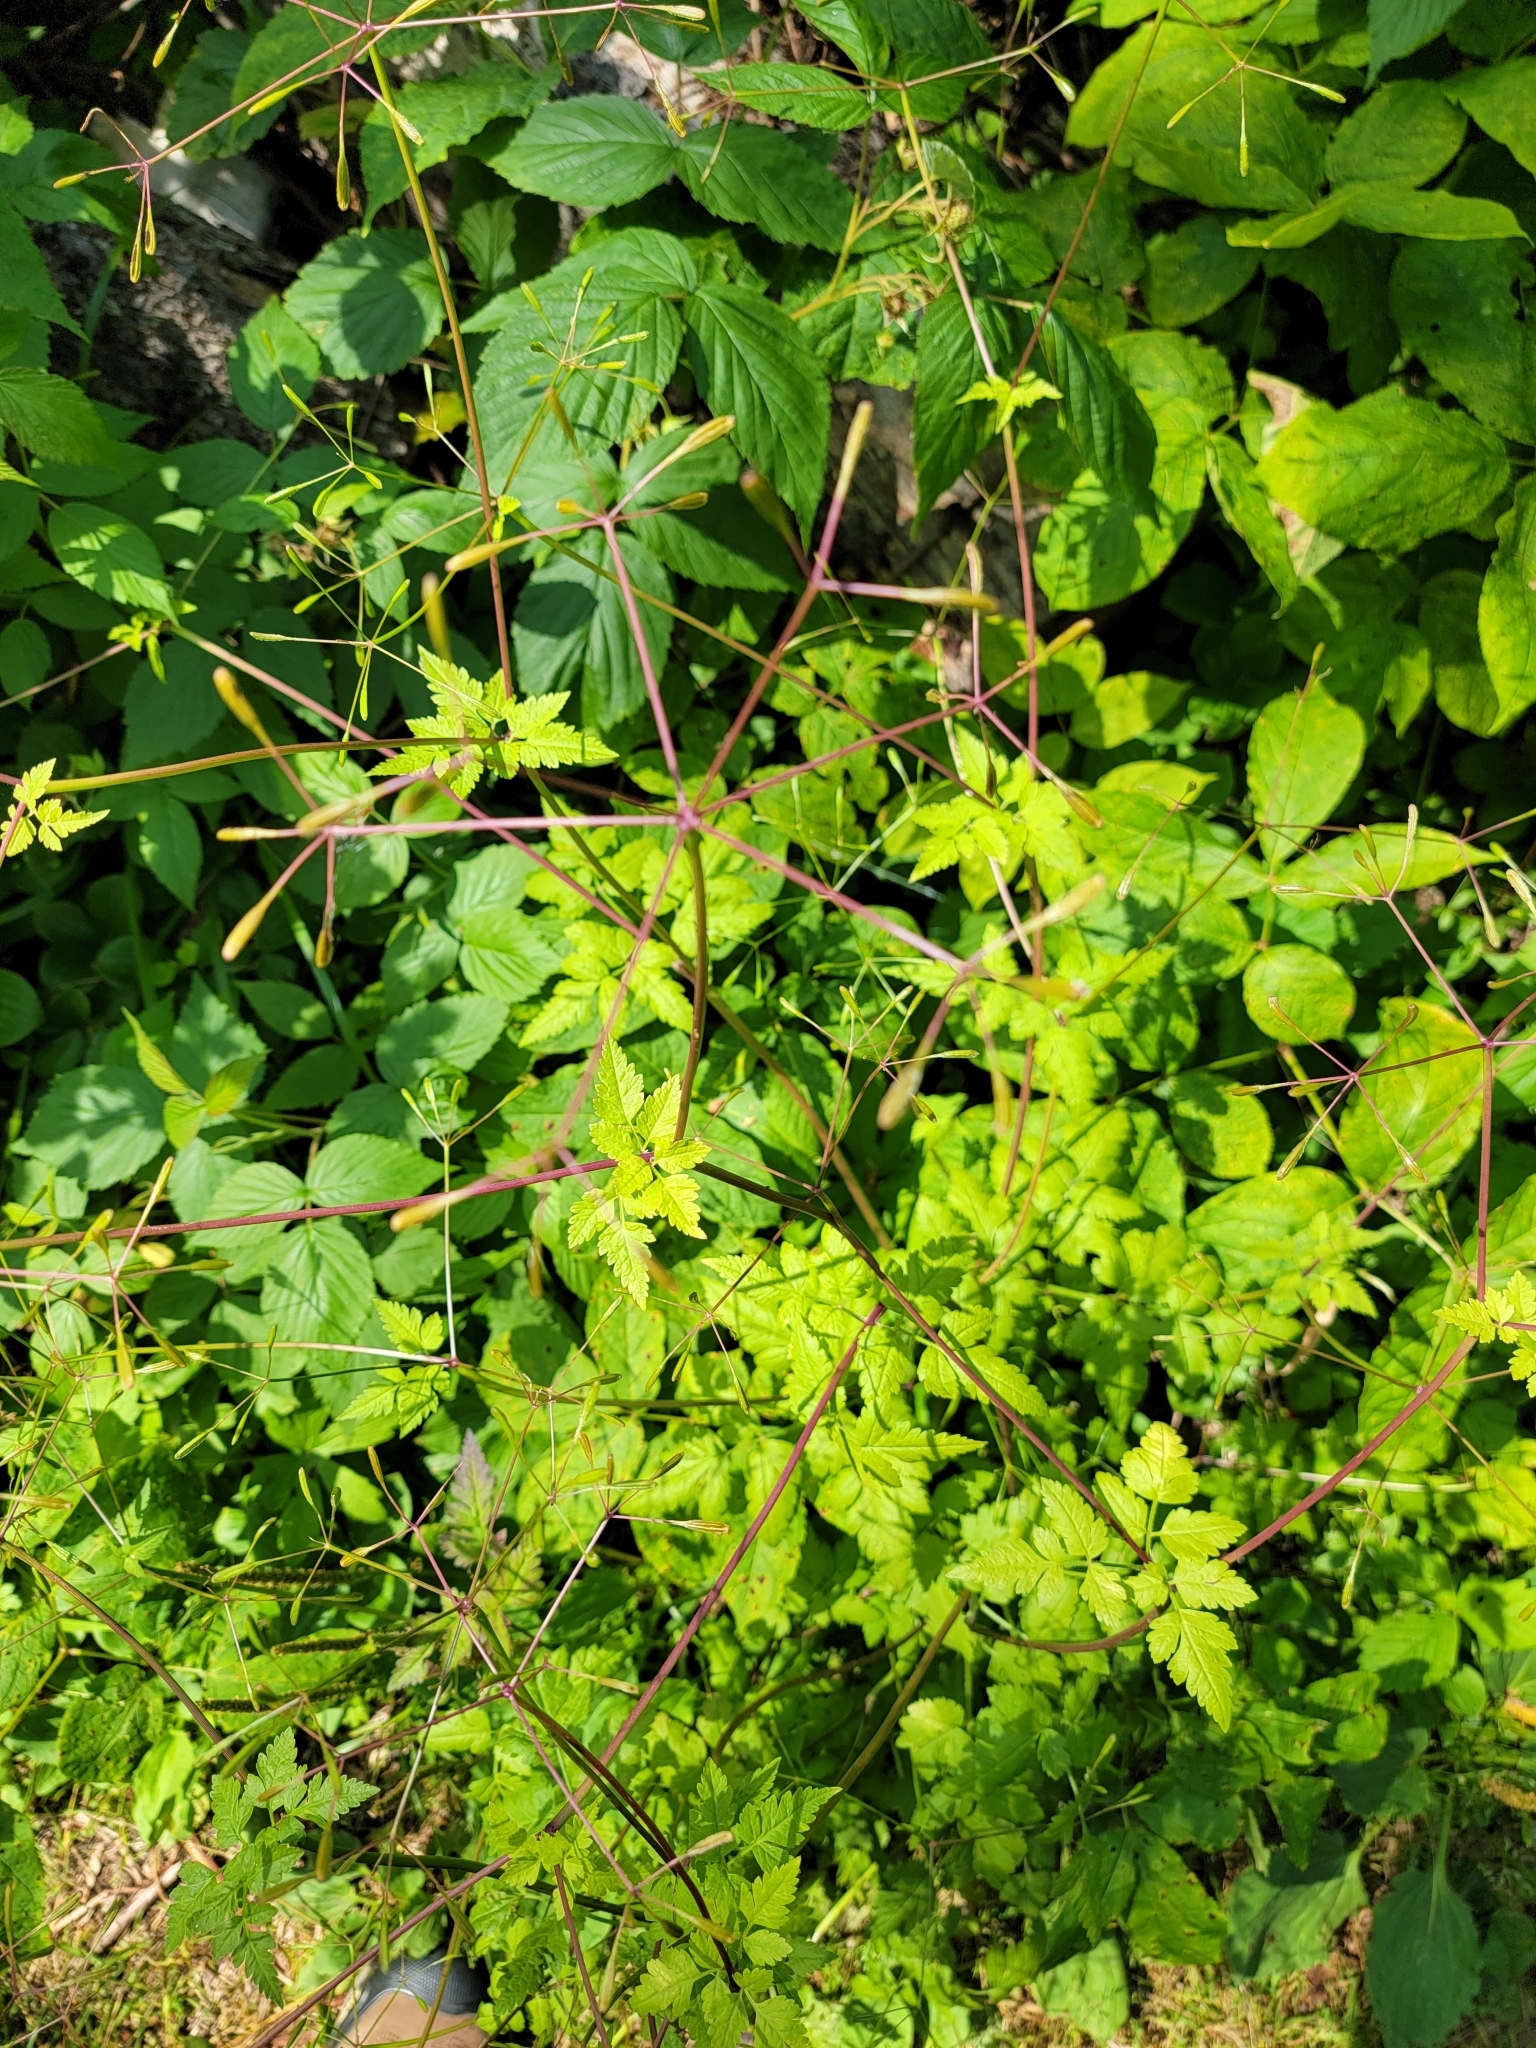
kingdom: Plantae
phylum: Tracheophyta
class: Magnoliopsida
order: Apiales
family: Apiaceae
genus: Osmorhiza
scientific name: Osmorhiza depauperata
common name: Blunt sweet cicely
